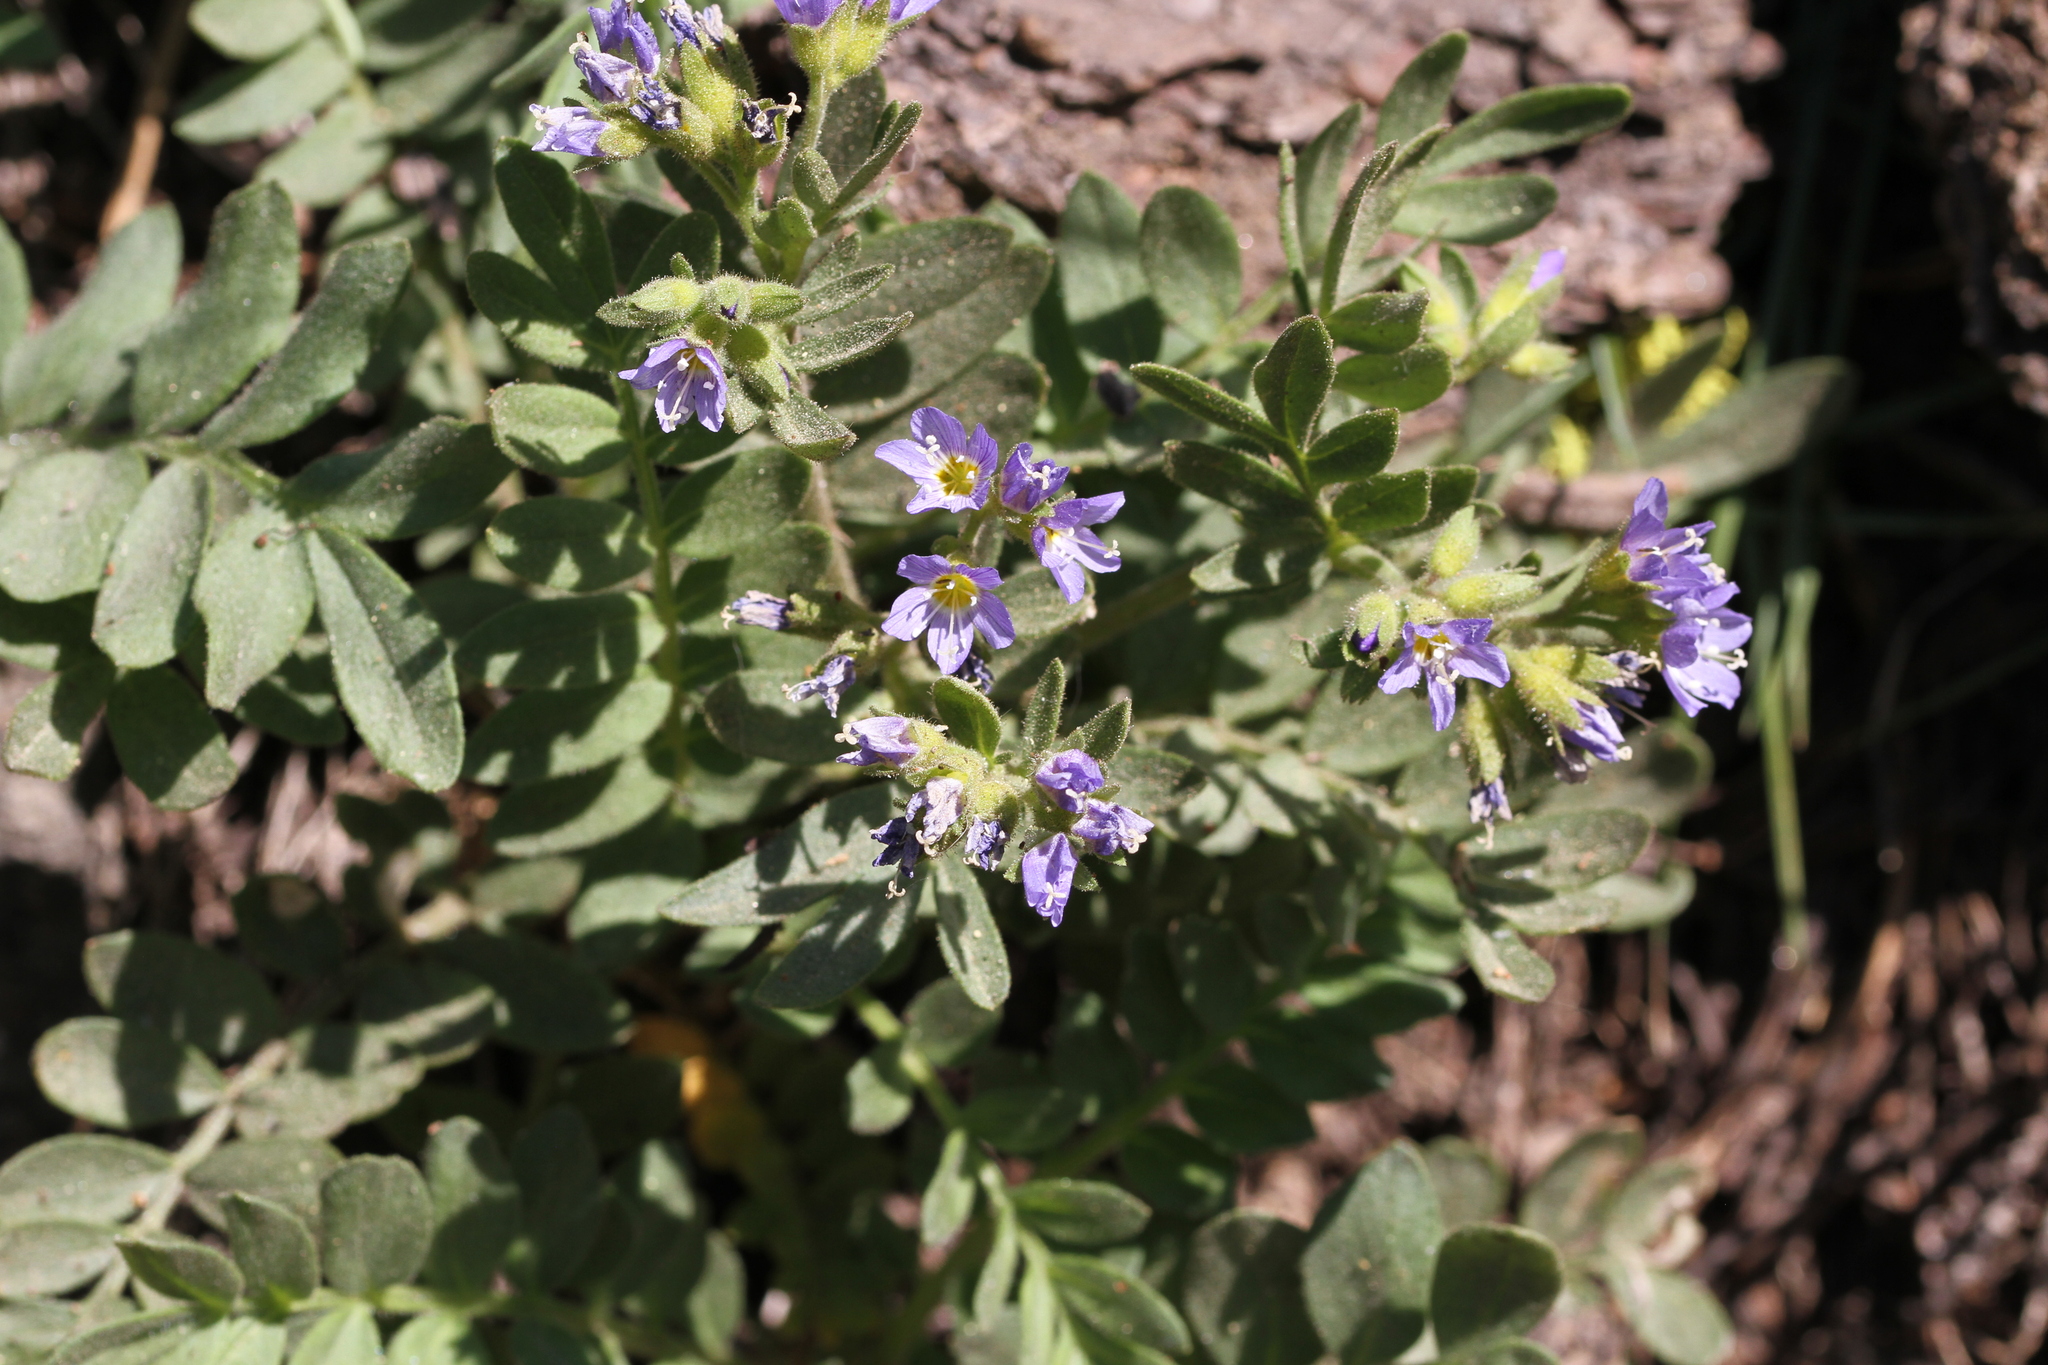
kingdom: Plantae
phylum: Tracheophyta
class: Magnoliopsida
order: Ericales
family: Polemoniaceae
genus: Polemonium
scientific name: Polemonium californicum
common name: California jacob's ladder
